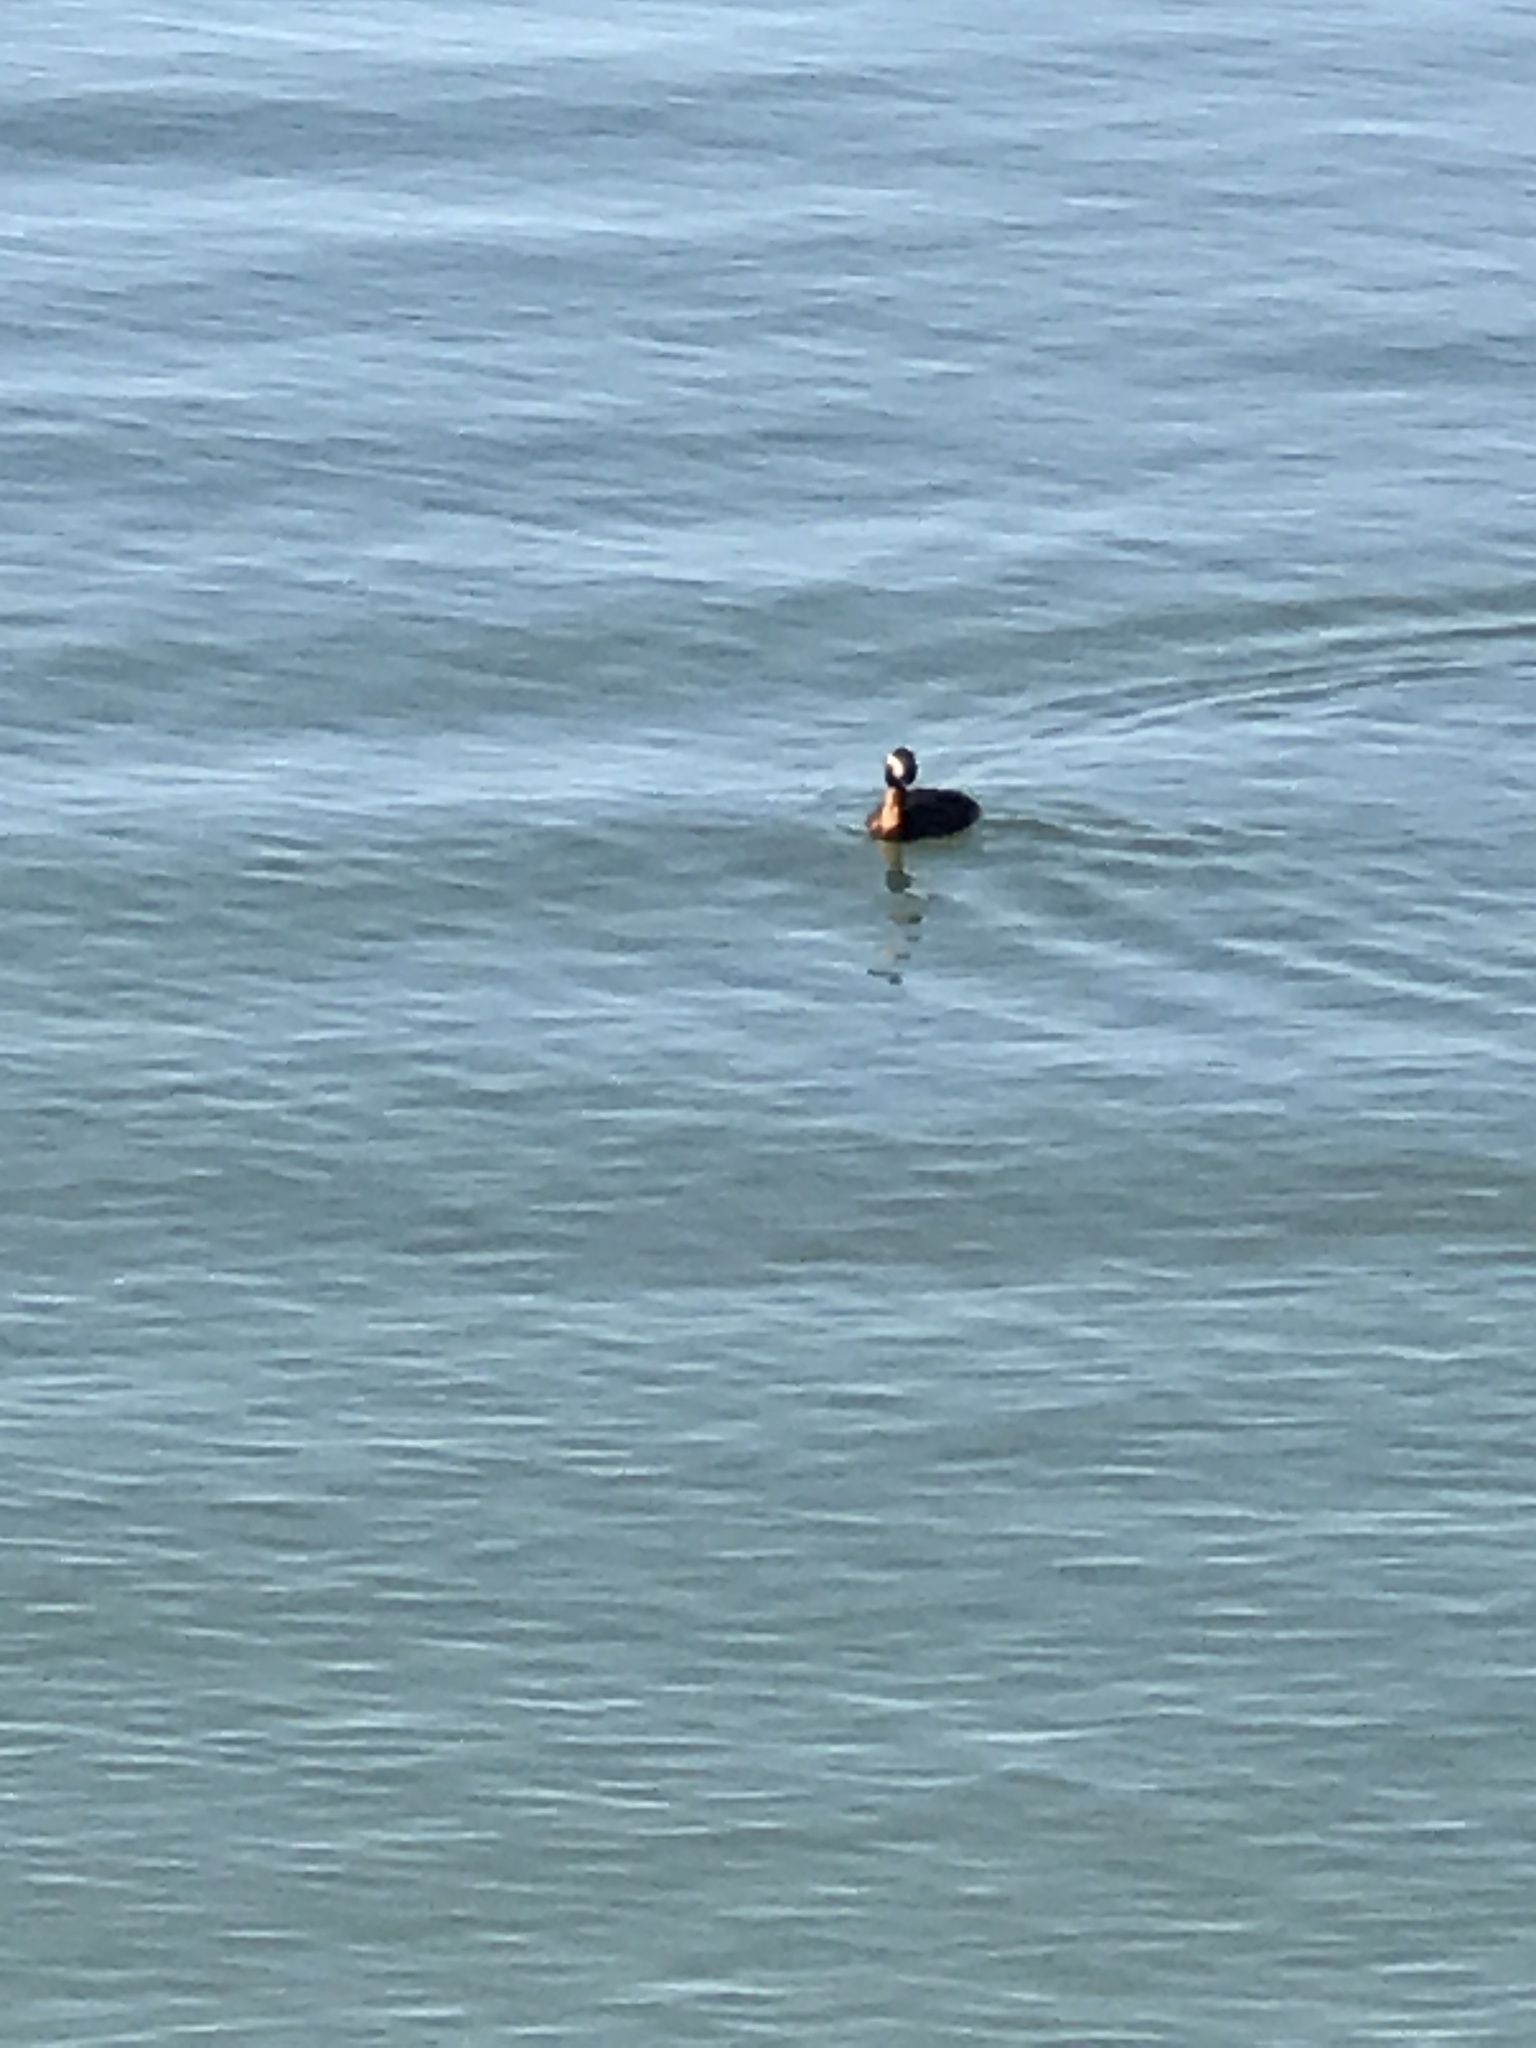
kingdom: Animalia
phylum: Chordata
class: Aves
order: Podicipediformes
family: Podicipedidae
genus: Podiceps
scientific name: Podiceps auritus
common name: Horned grebe
